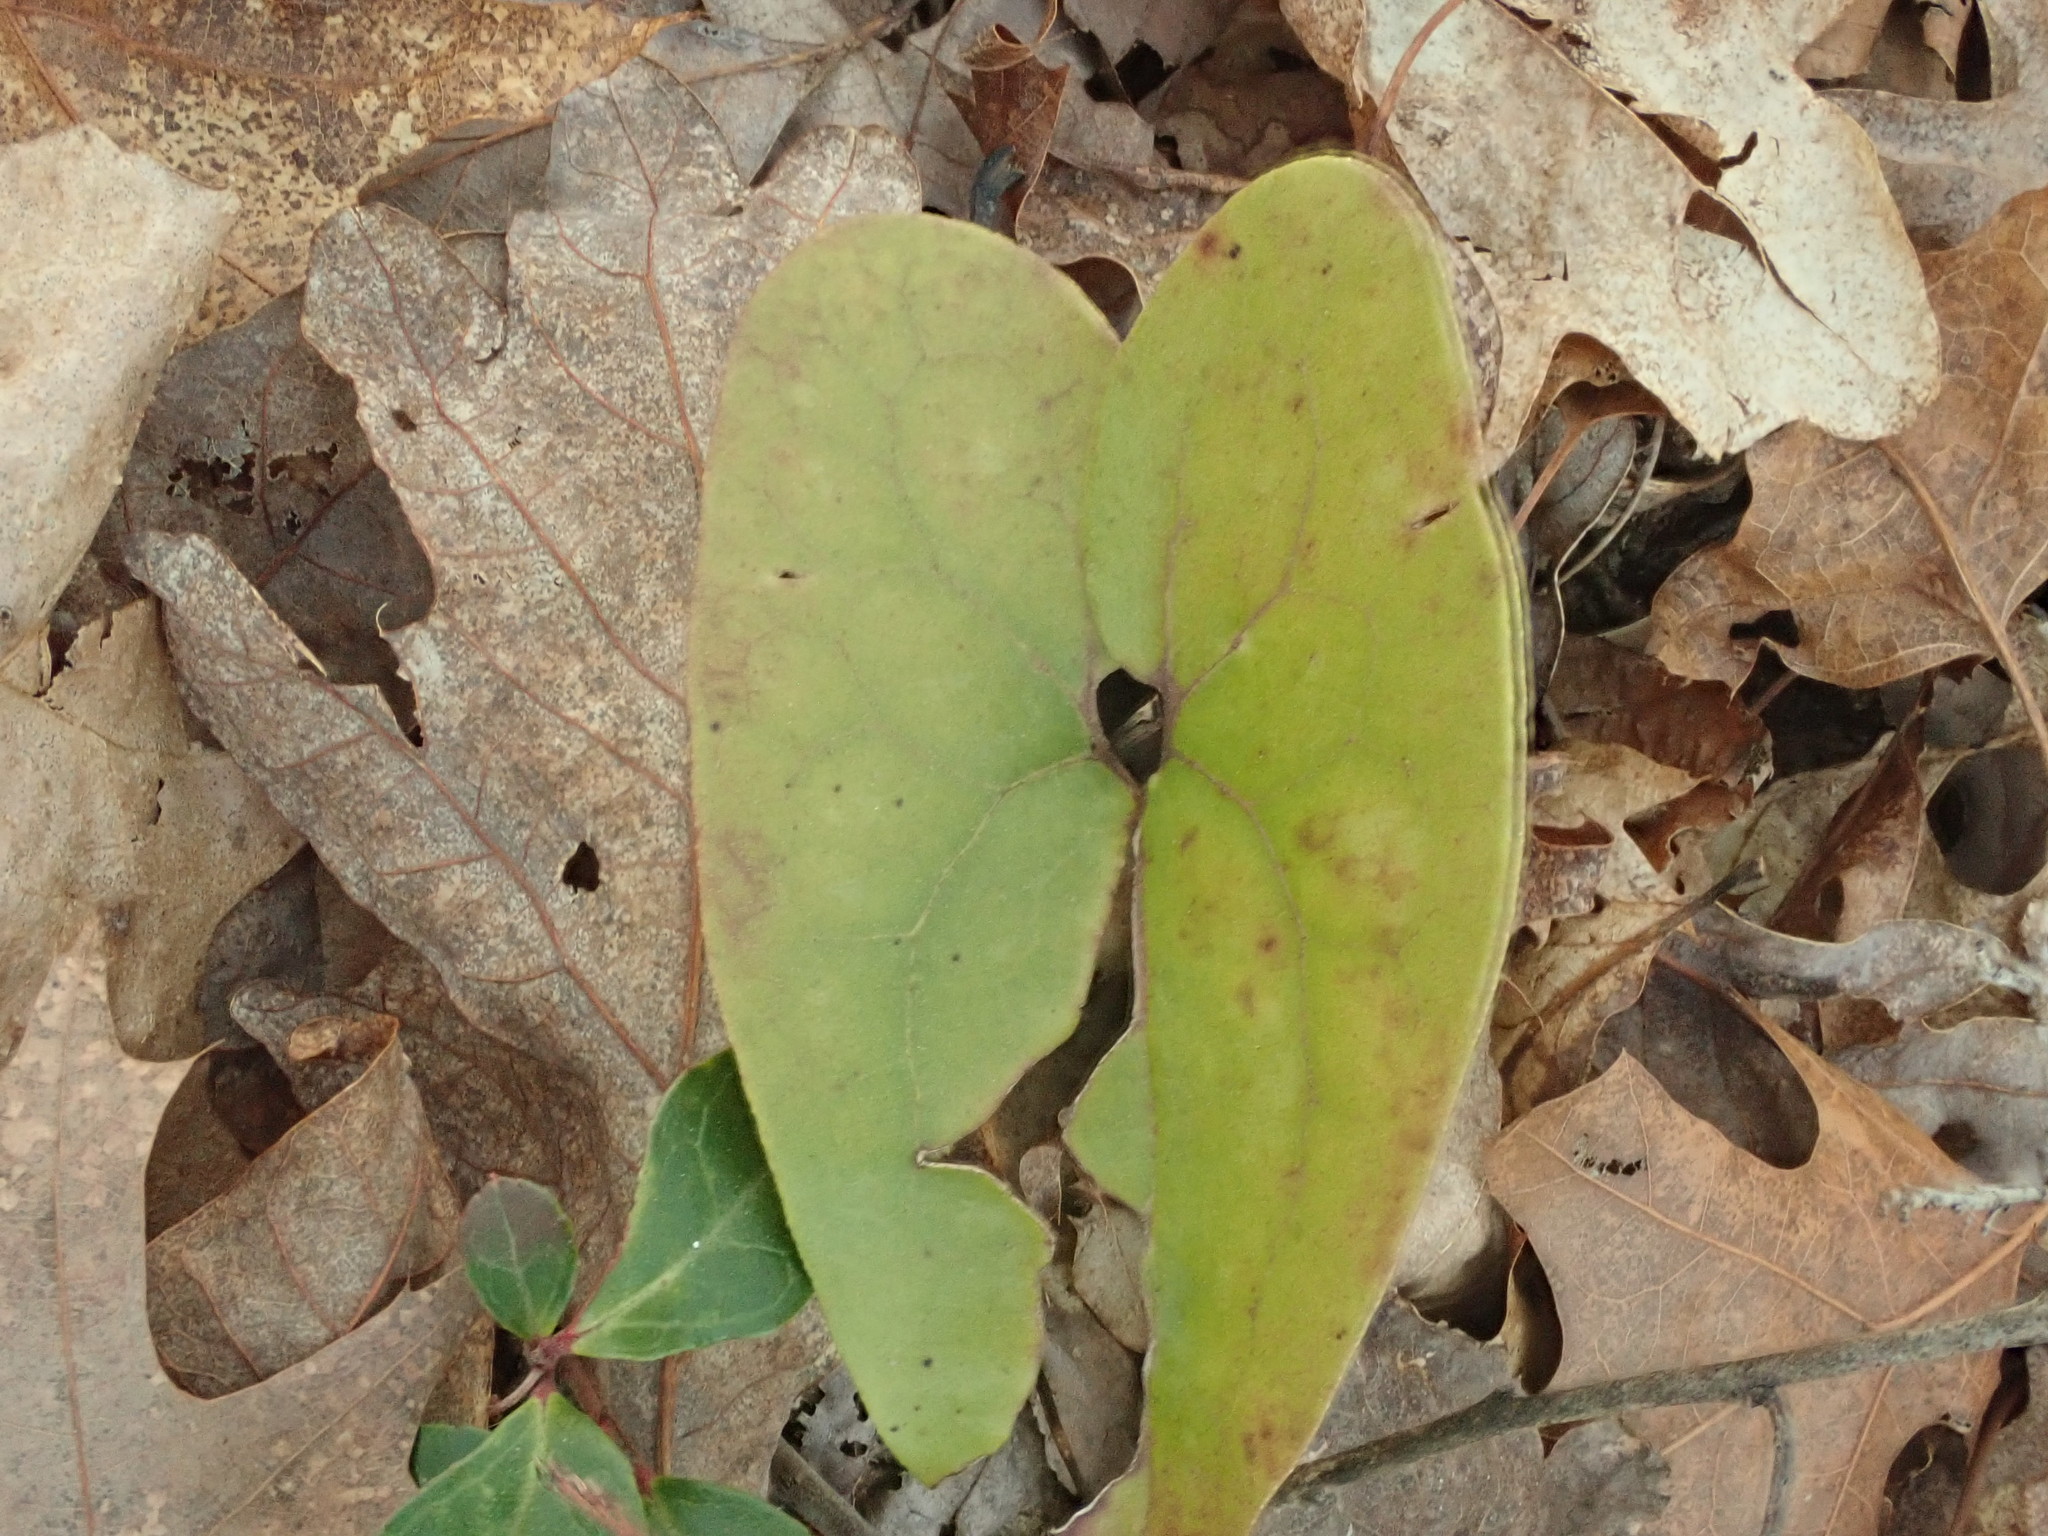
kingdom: Plantae
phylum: Tracheophyta
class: Magnoliopsida
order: Piperales
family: Aristolochiaceae
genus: Hexastylis
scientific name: Hexastylis arifolia
